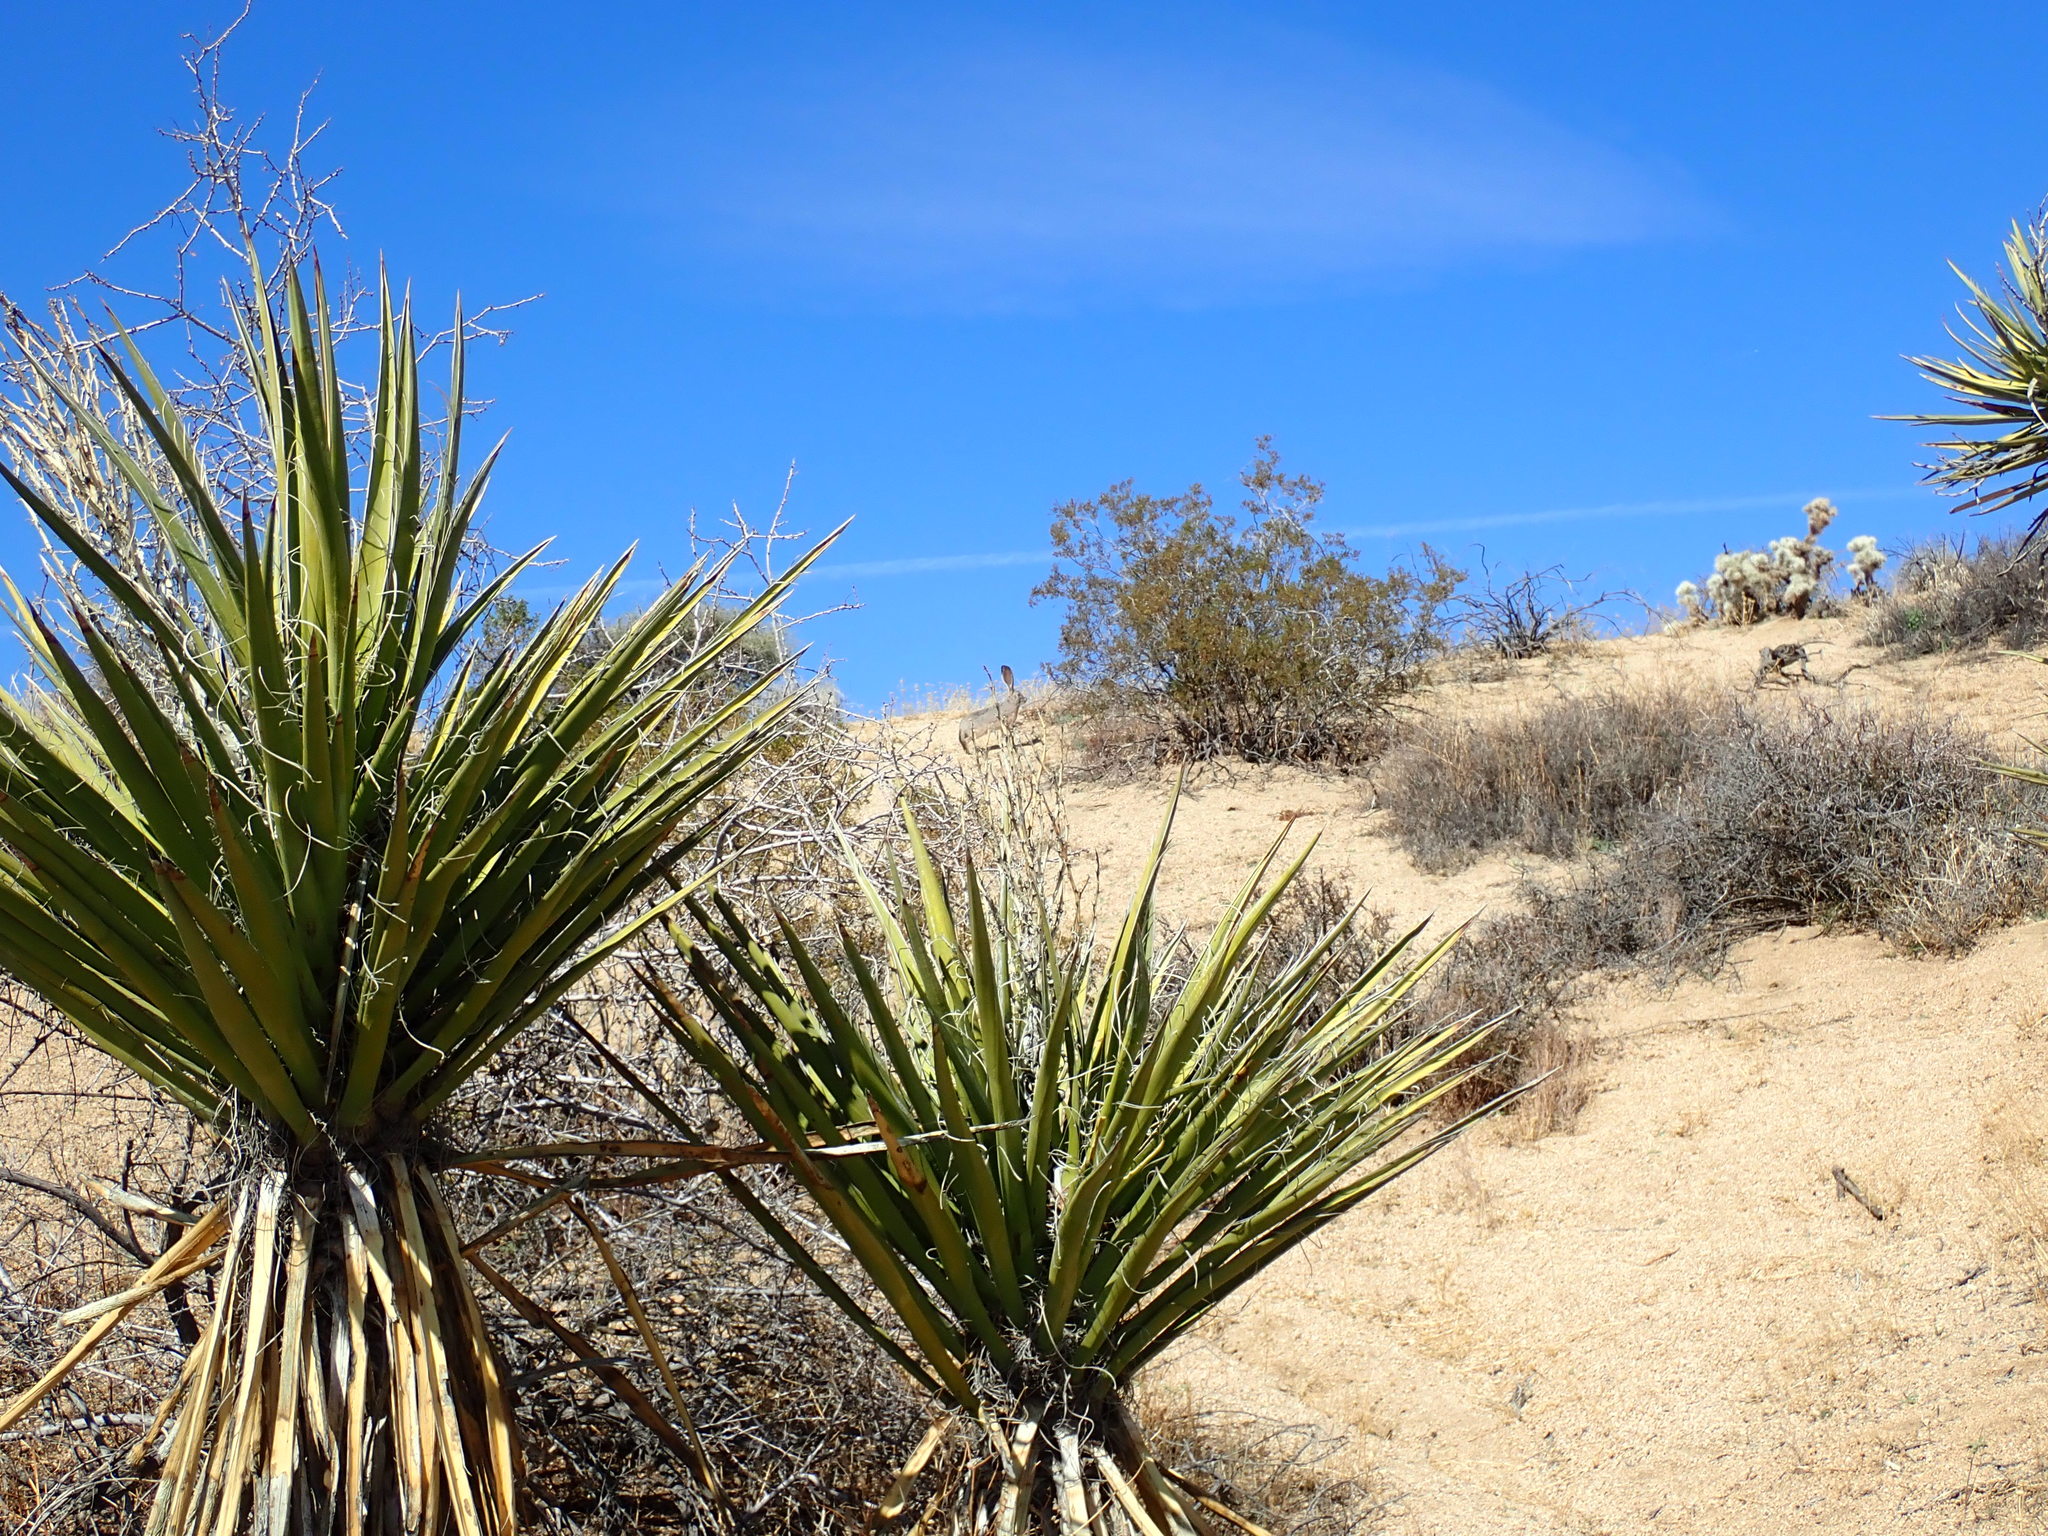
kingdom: Animalia
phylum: Chordata
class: Mammalia
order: Lagomorpha
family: Leporidae
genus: Lepus
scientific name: Lepus californicus
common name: Black-tailed jackrabbit
